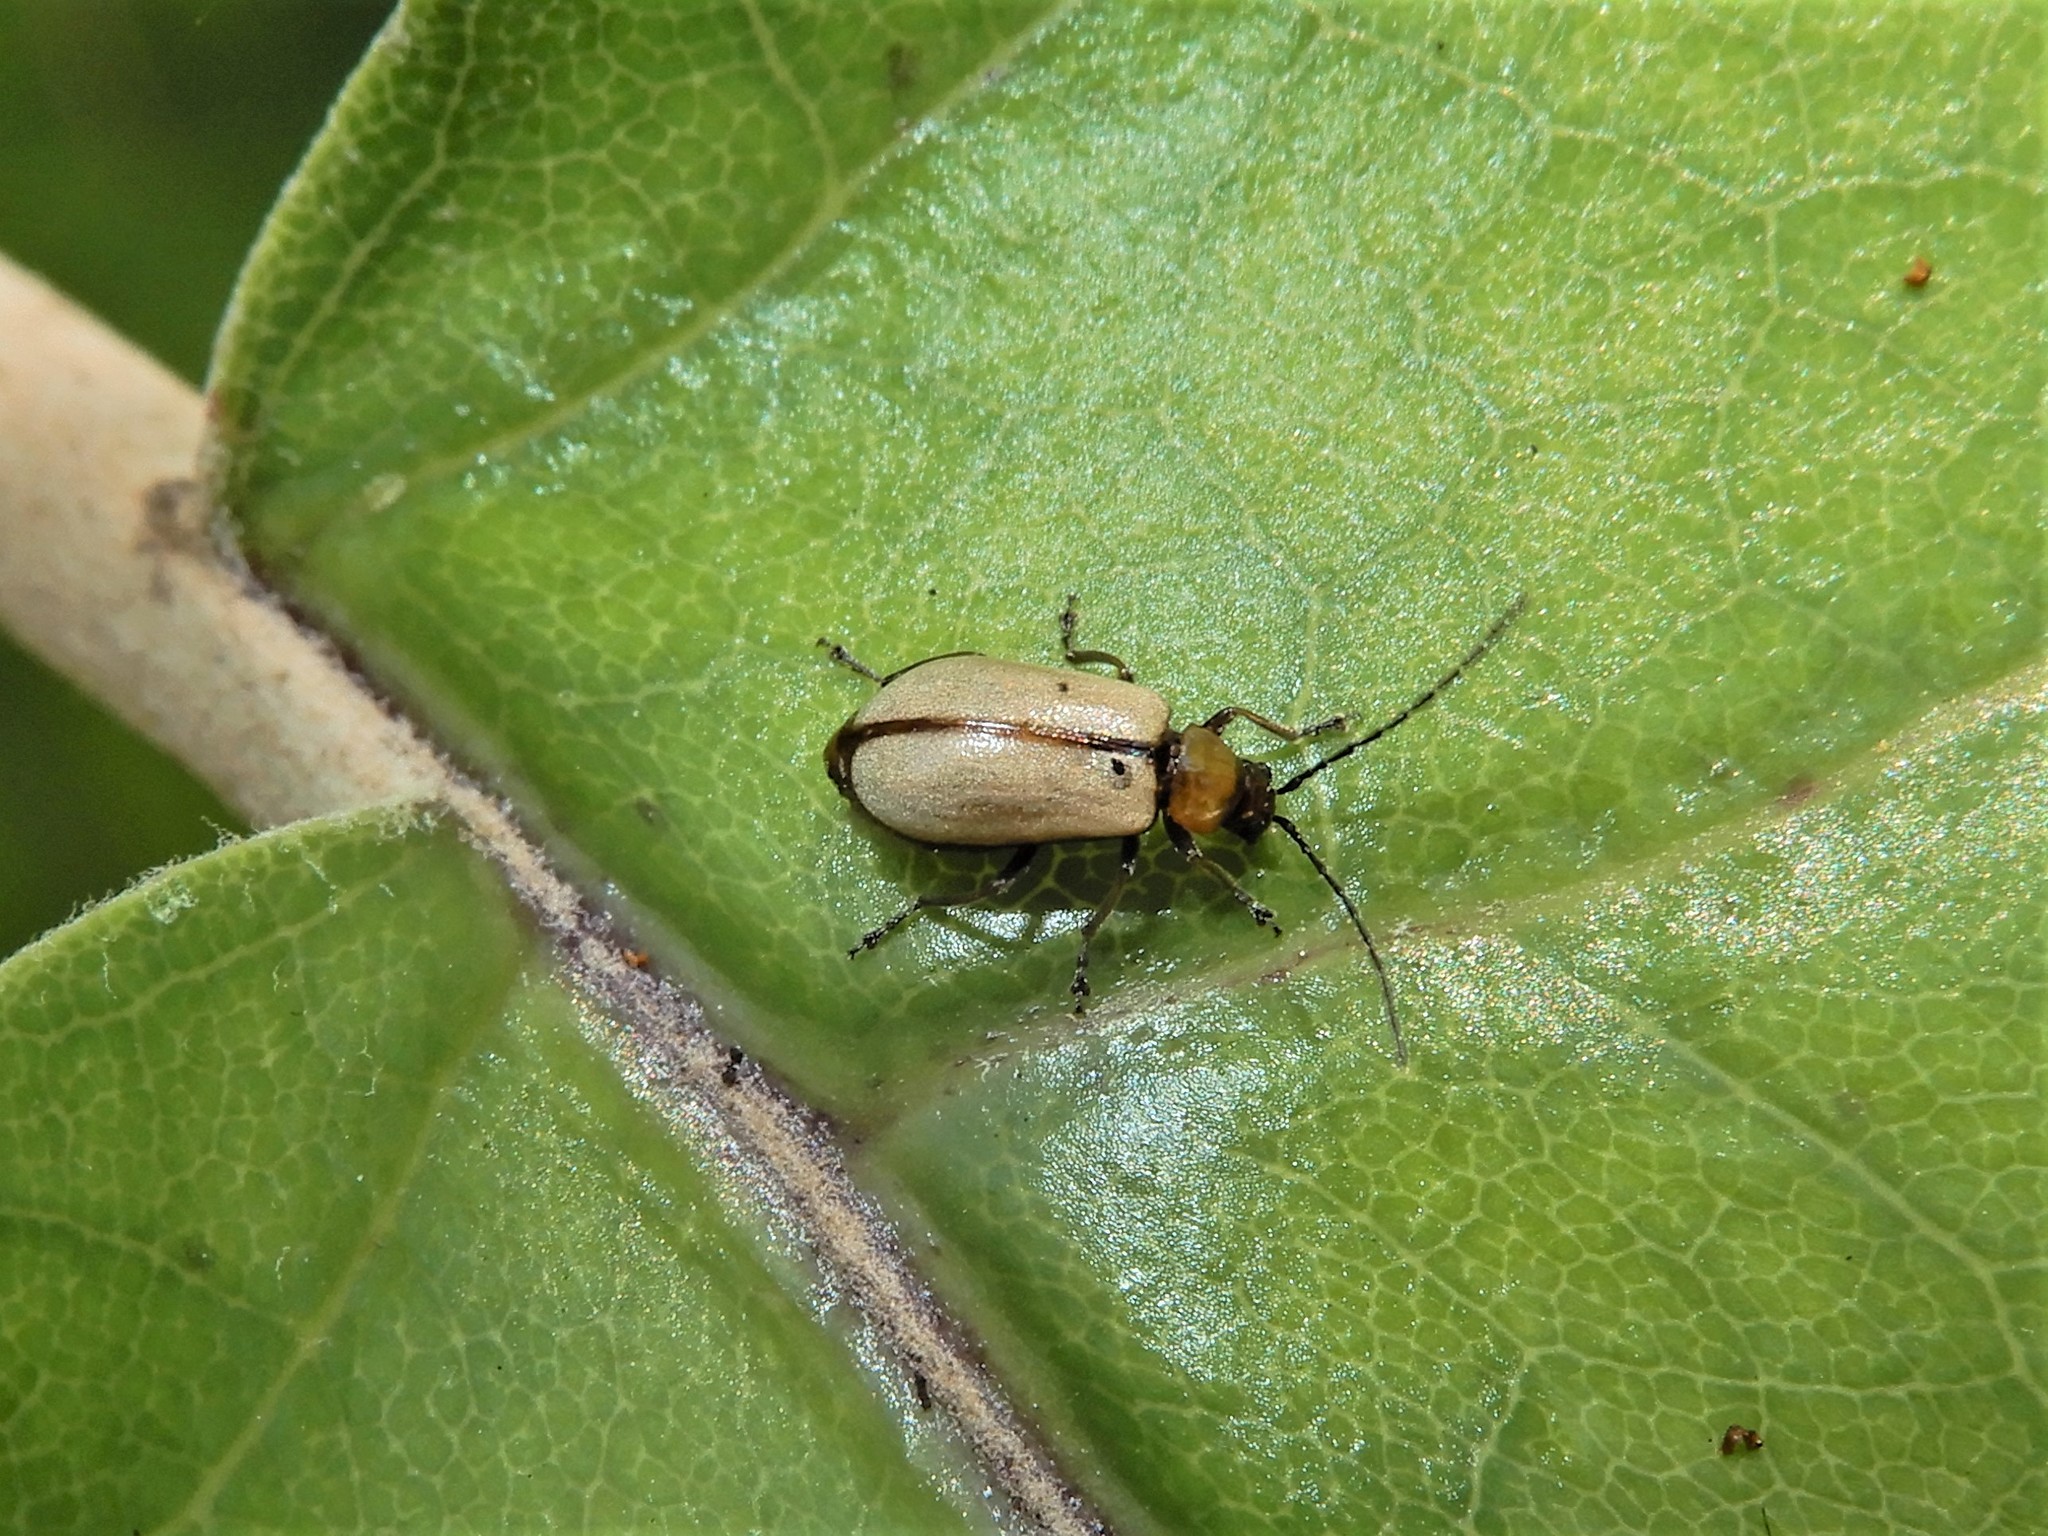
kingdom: Animalia
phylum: Arthropoda
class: Insecta
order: Coleoptera
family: Chrysomelidae
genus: Adoxia
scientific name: Adoxia
